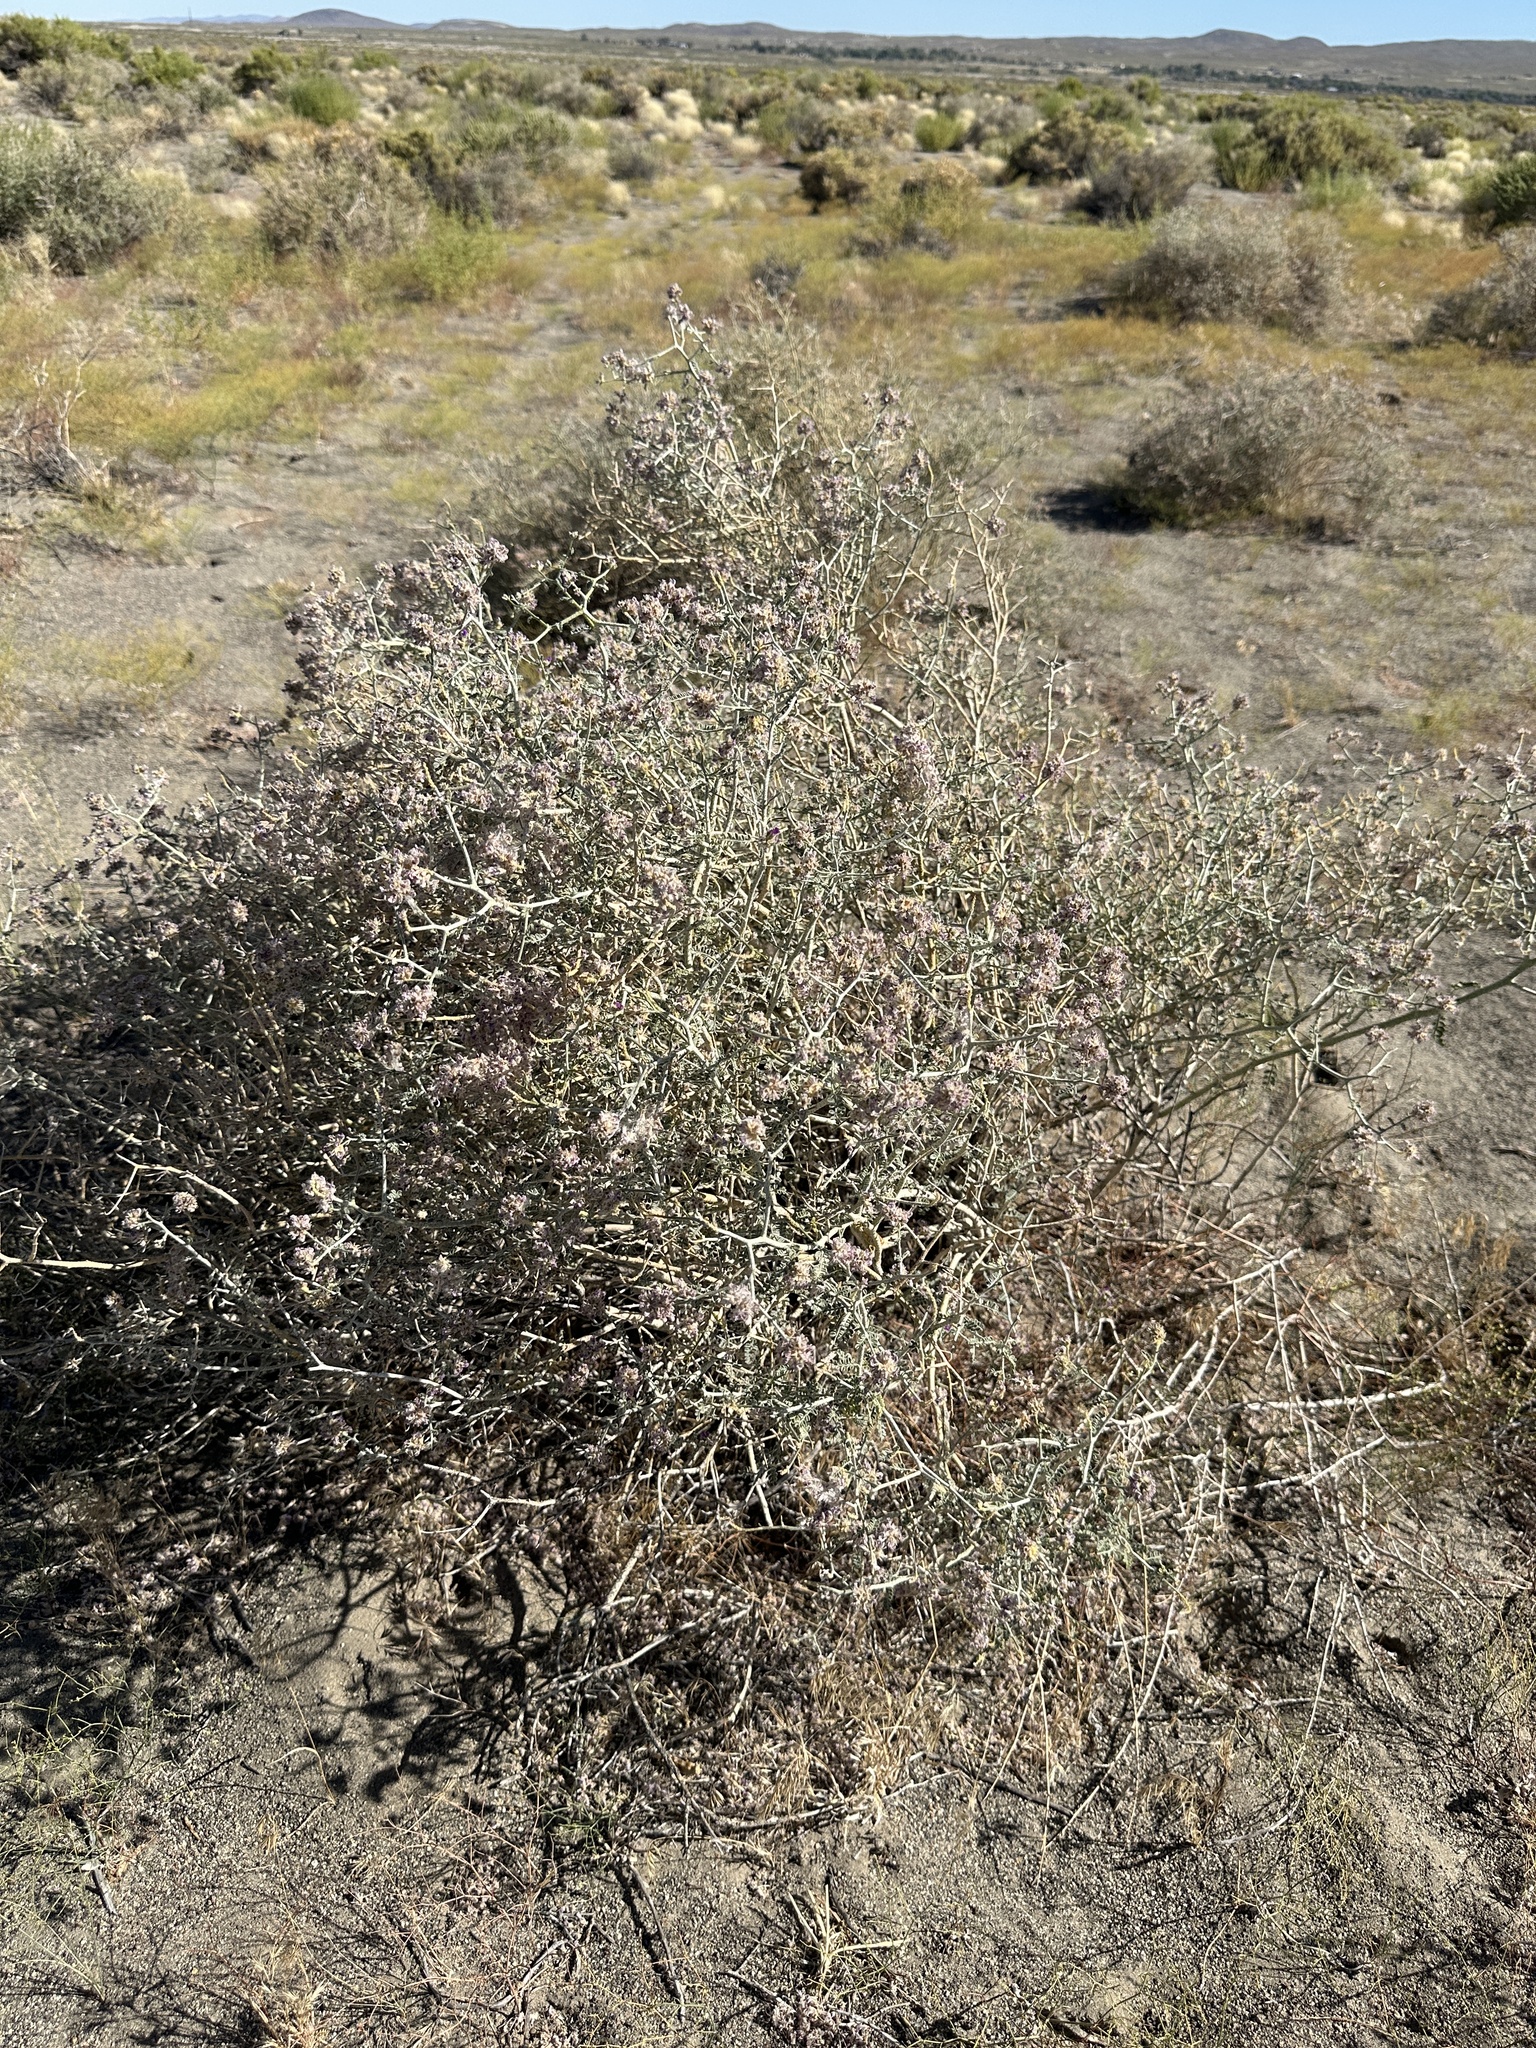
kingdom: Plantae
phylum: Tracheophyta
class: Magnoliopsida
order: Fabales
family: Fabaceae
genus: Psorothamnus
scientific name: Psorothamnus polydenius
